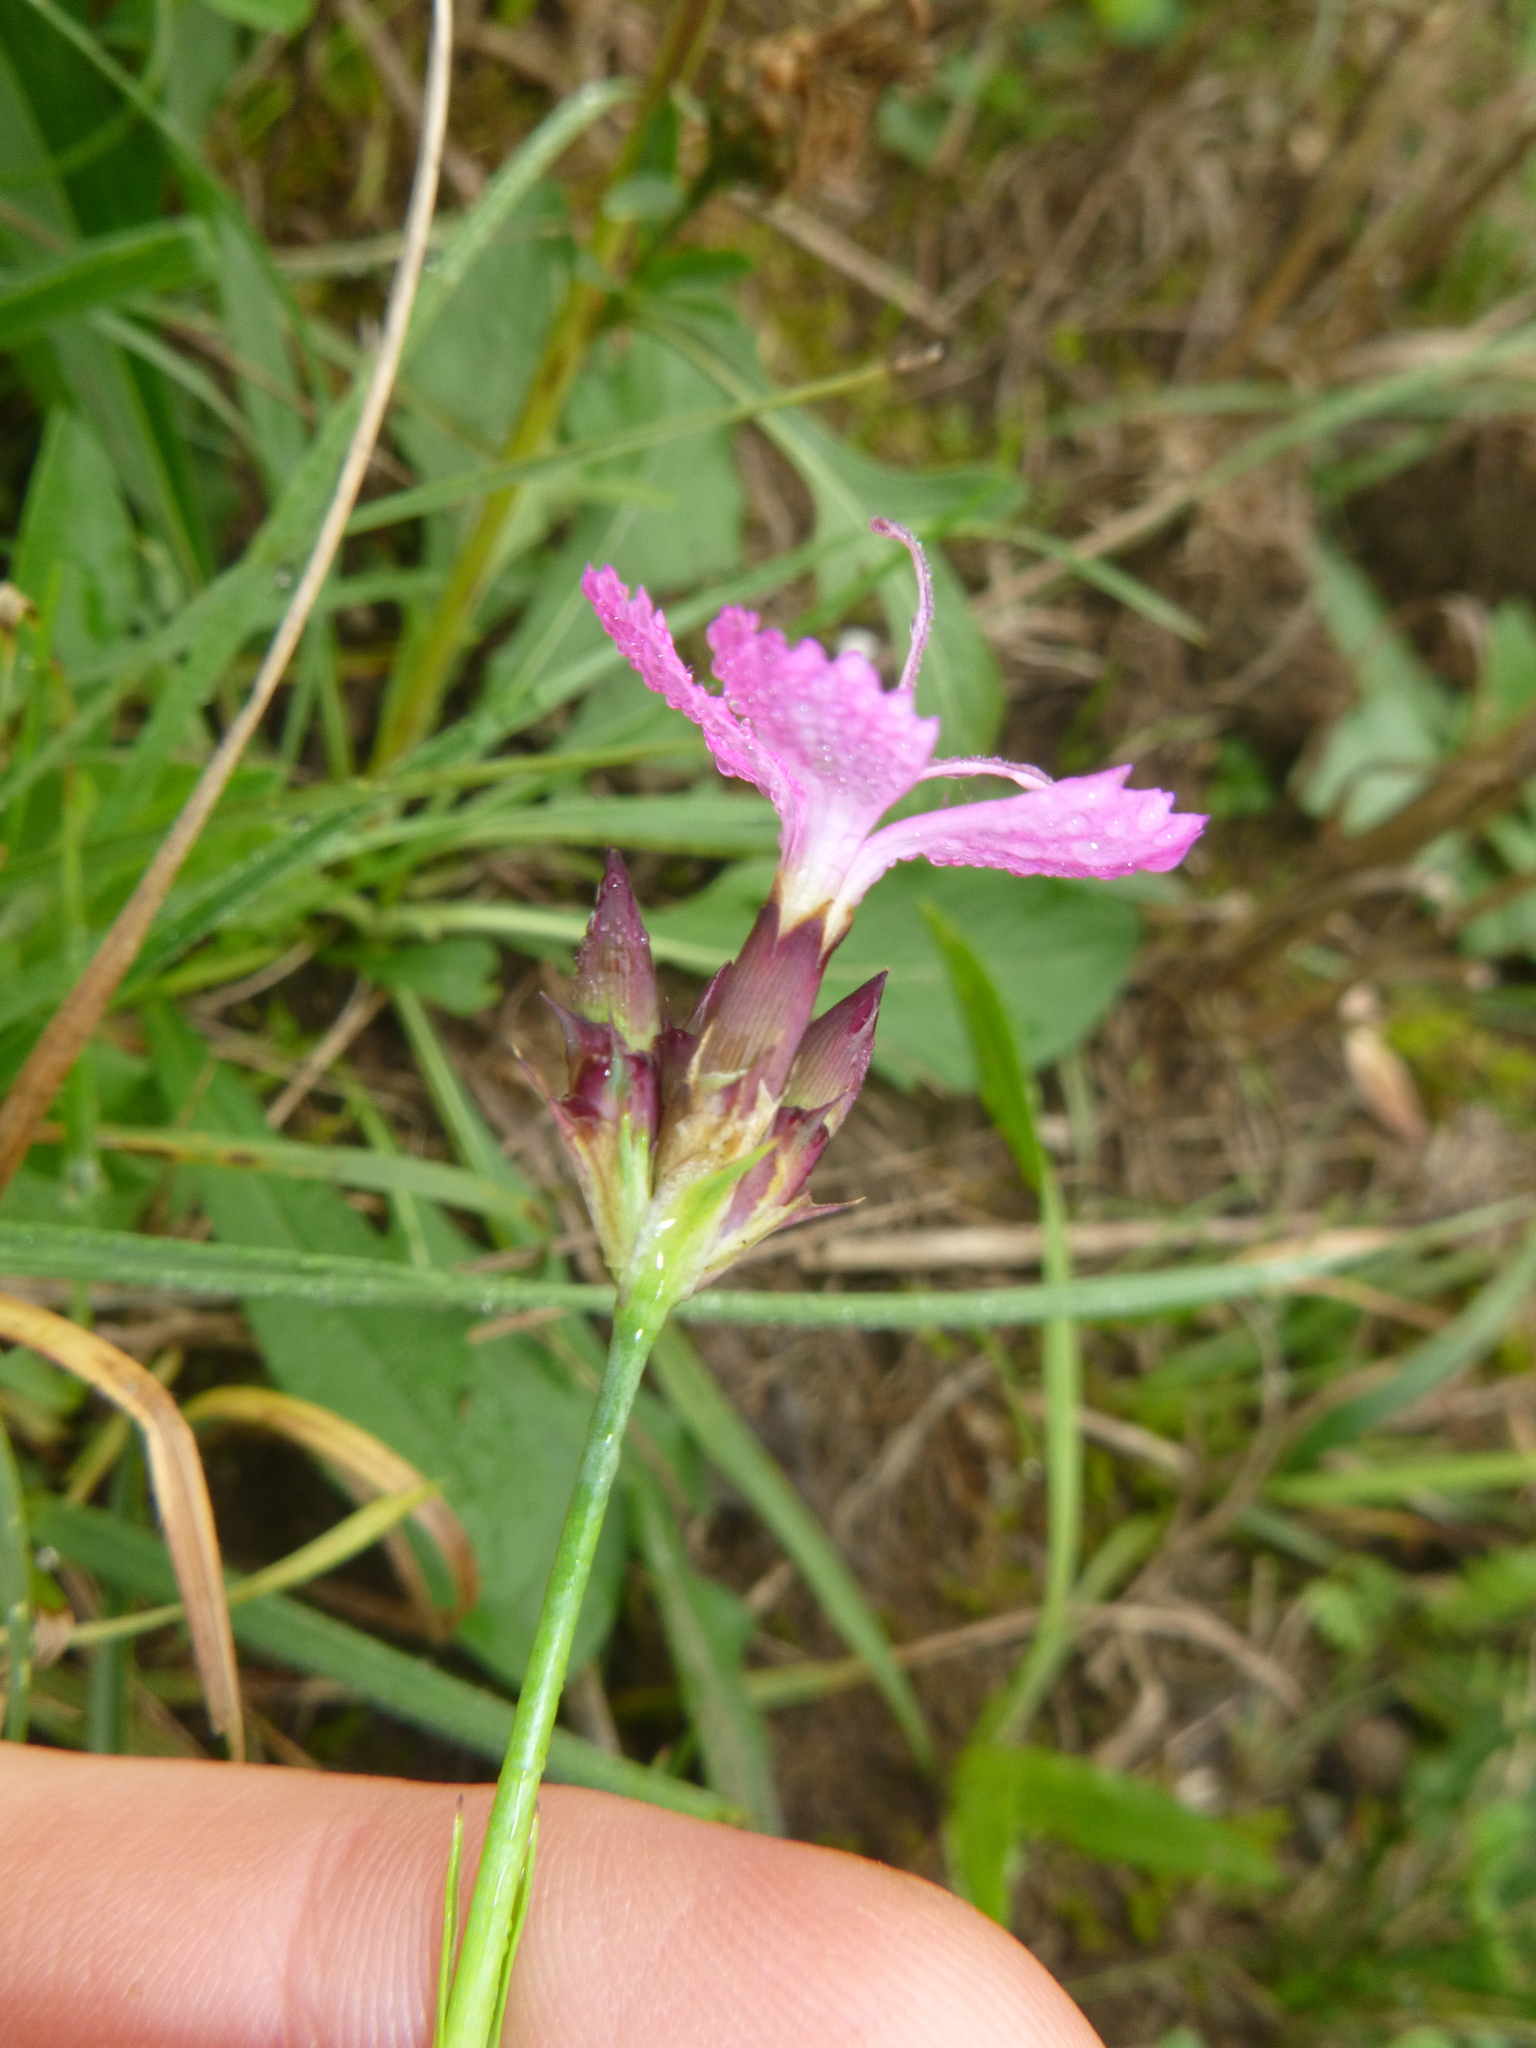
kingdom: Plantae
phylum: Tracheophyta
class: Magnoliopsida
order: Caryophyllales
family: Caryophyllaceae
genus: Dianthus
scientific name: Dianthus carthusianorum
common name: Carthusian pink
